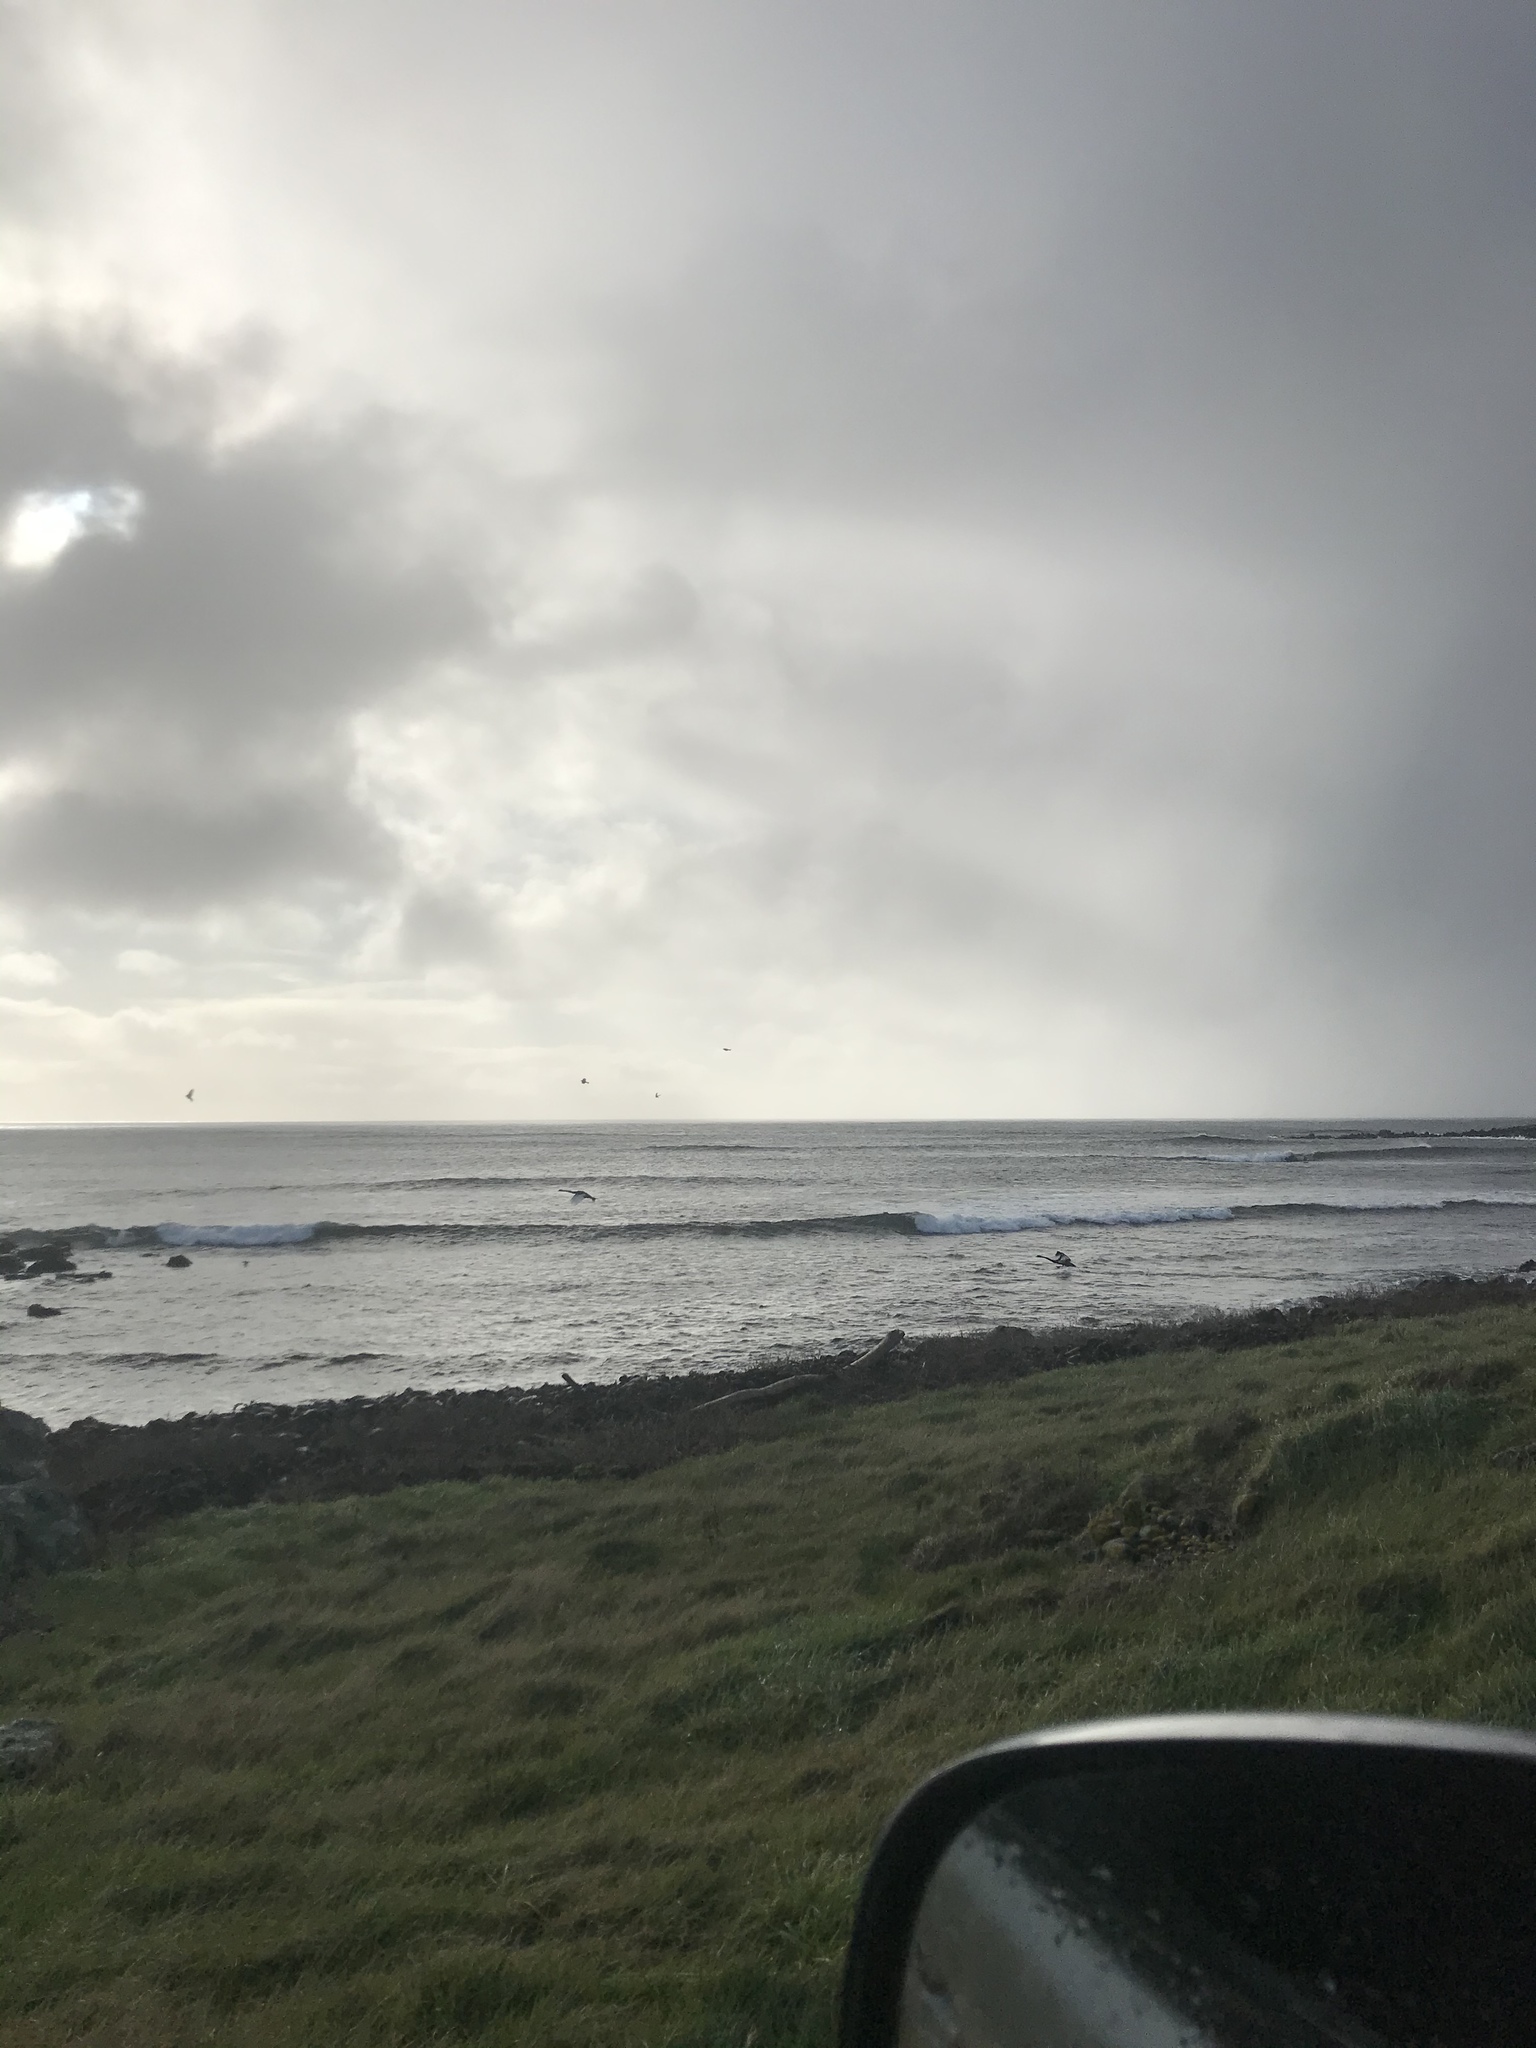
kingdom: Animalia
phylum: Chordata
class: Aves
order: Anseriformes
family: Anatidae
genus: Cygnus
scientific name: Cygnus atratus
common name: Black swan
